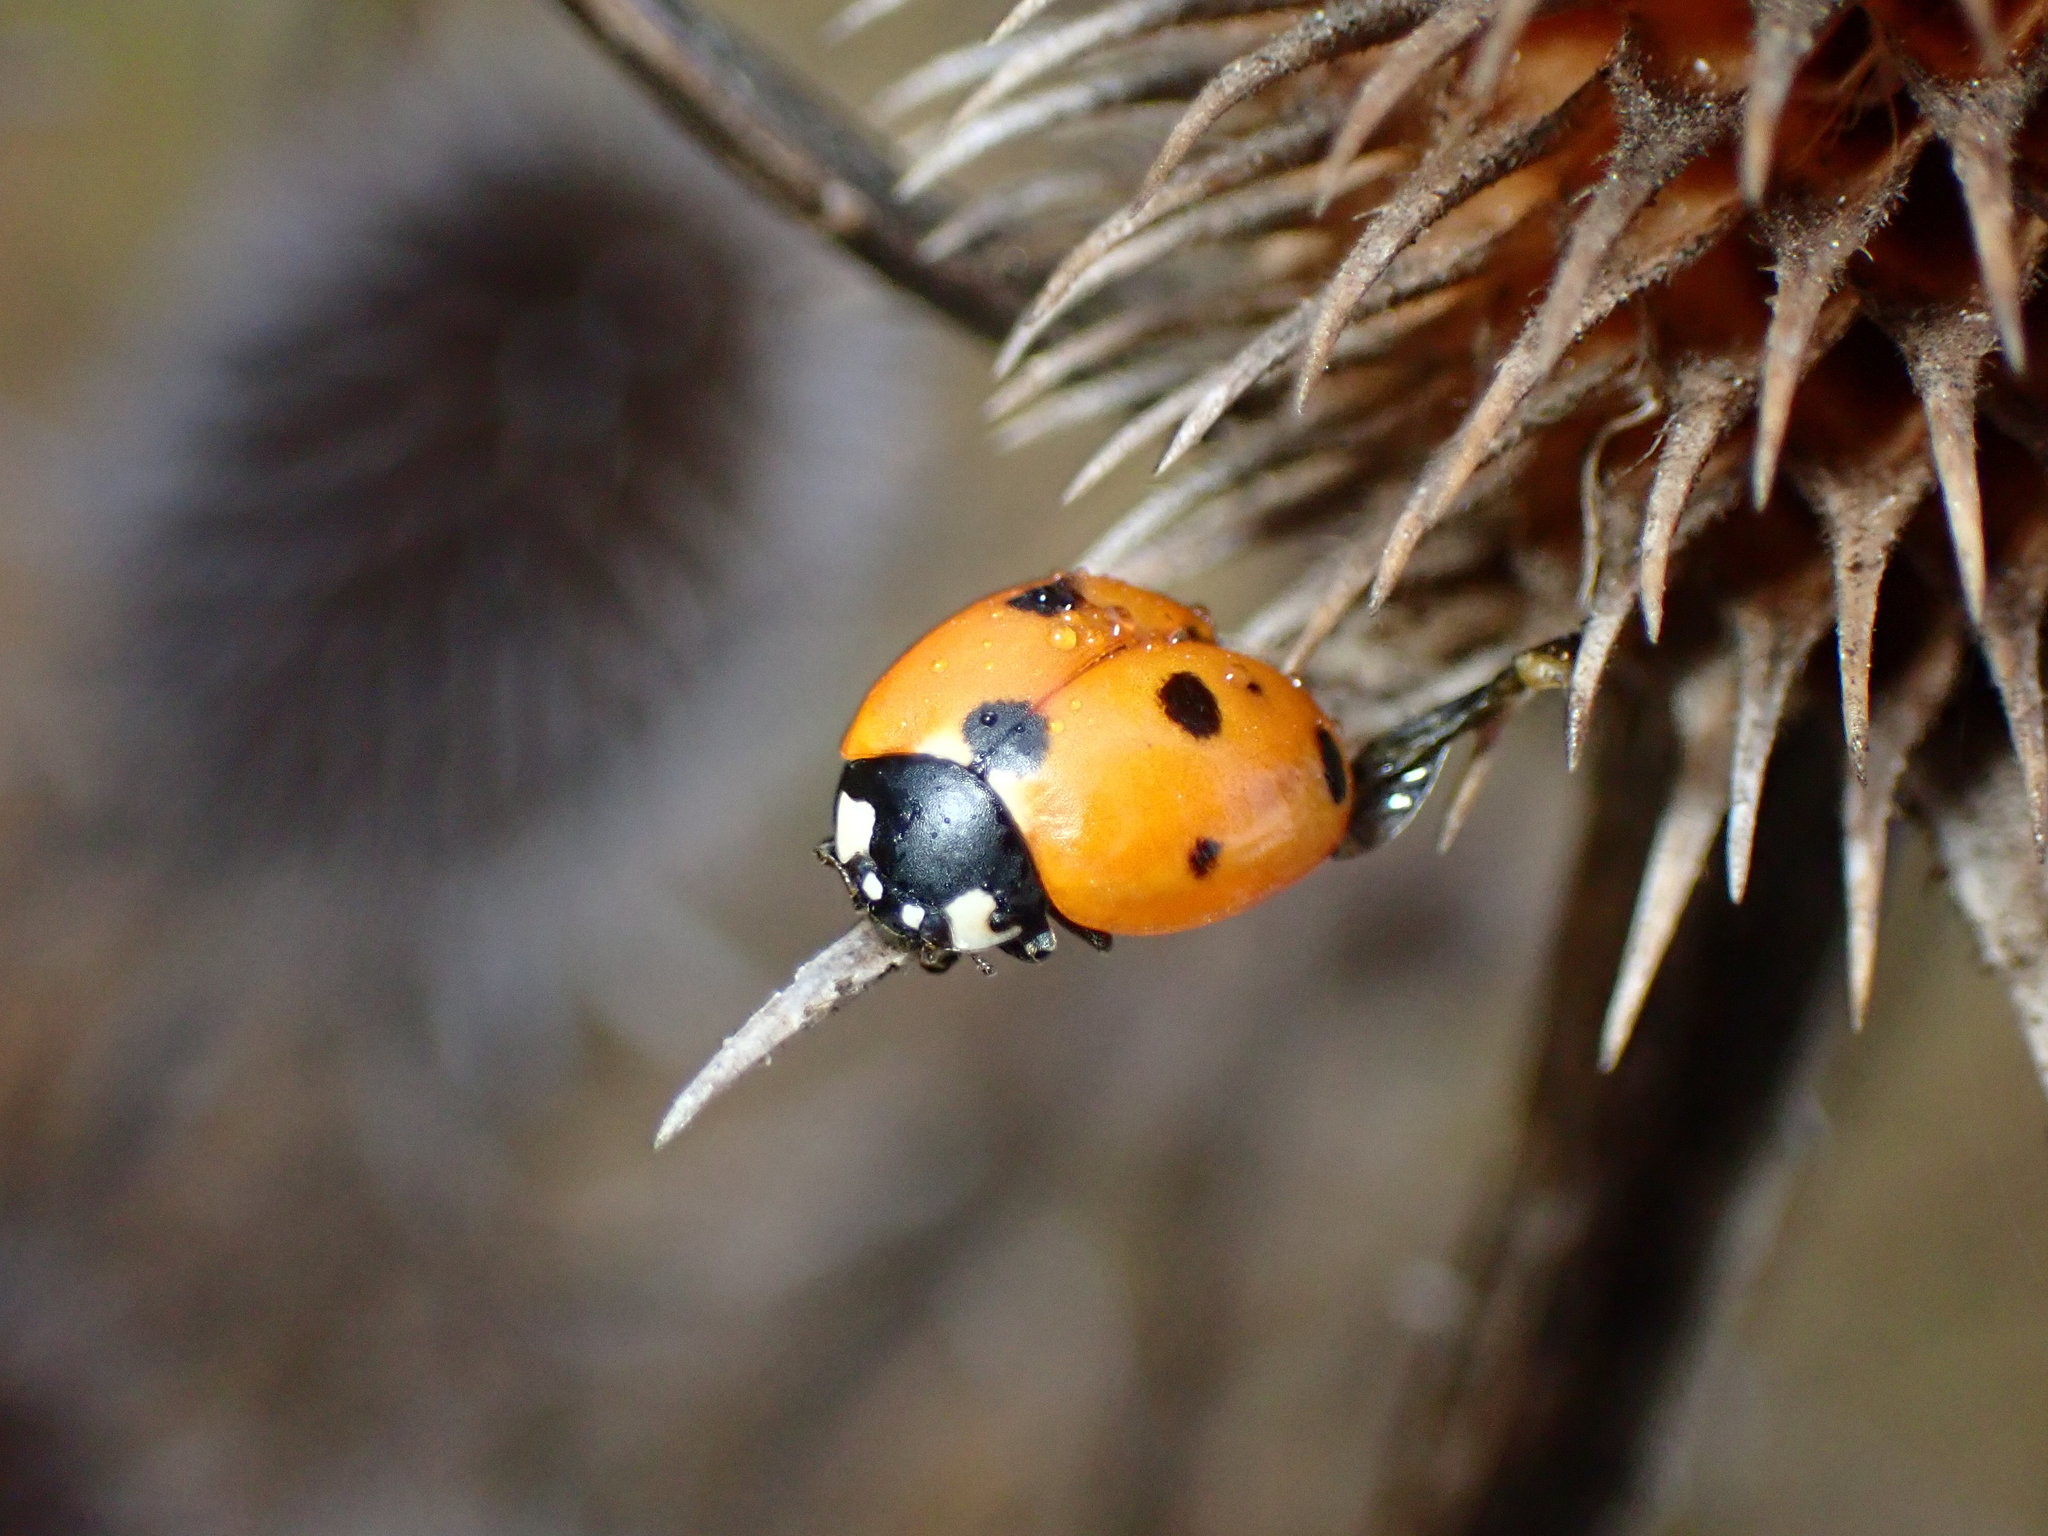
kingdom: Animalia
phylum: Arthropoda
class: Insecta
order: Coleoptera
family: Coccinellidae
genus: Coccinella
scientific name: Coccinella septempunctata
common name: Sevenspotted lady beetle
